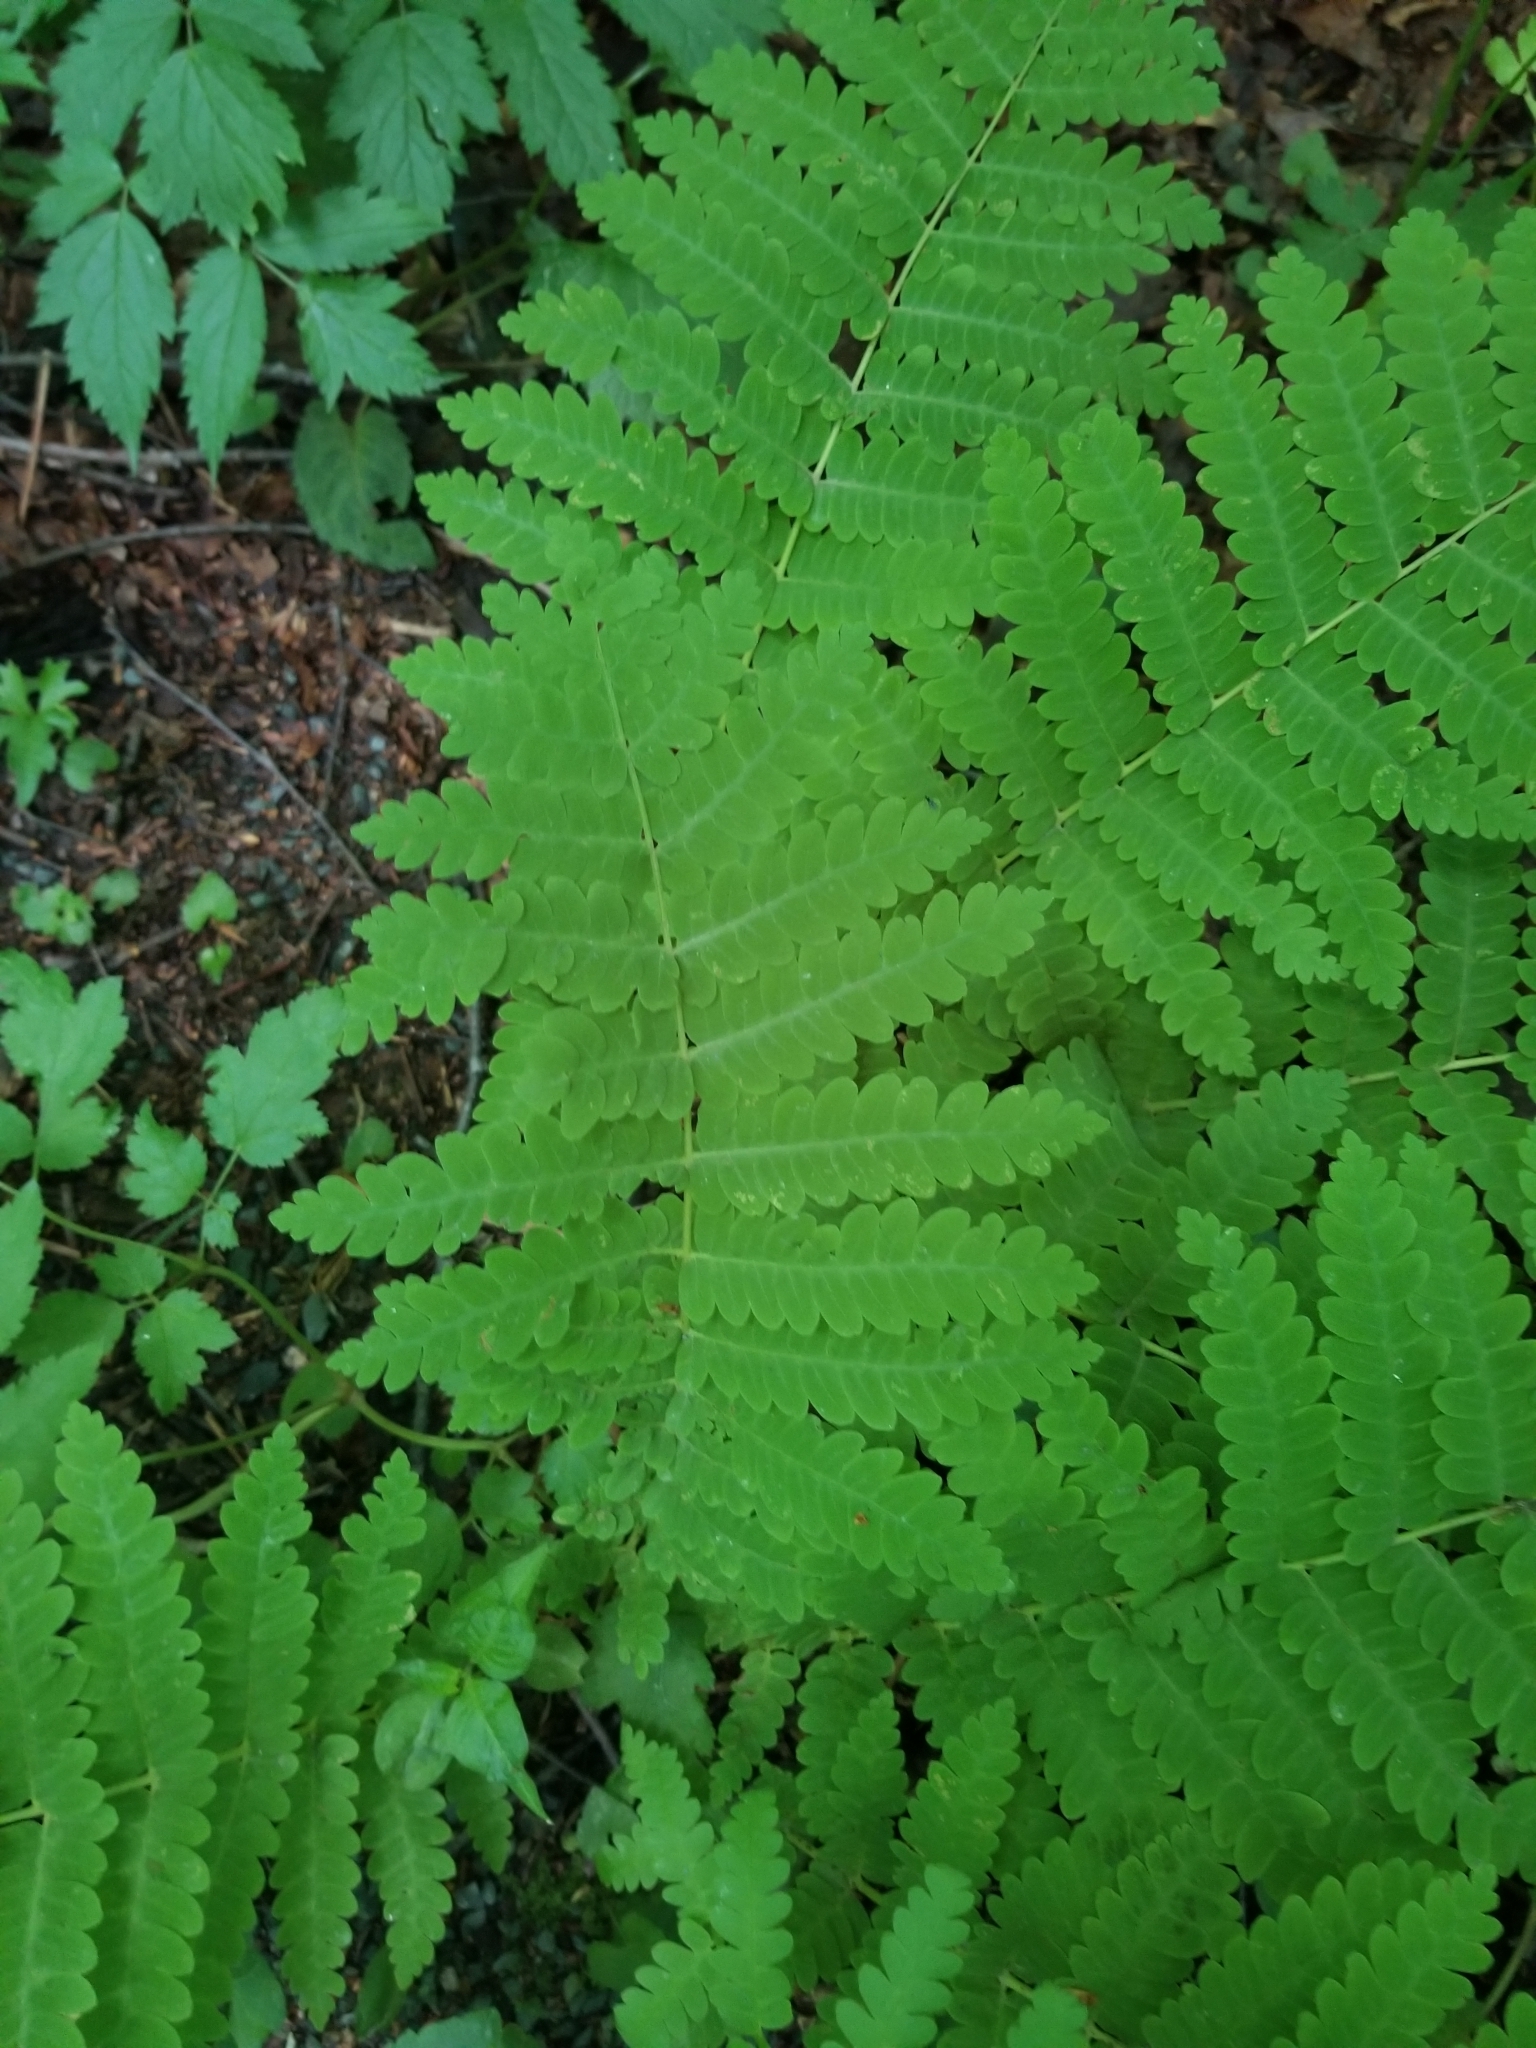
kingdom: Plantae
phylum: Tracheophyta
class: Polypodiopsida
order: Osmundales
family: Osmundaceae
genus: Claytosmunda
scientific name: Claytosmunda claytoniana
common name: Clayton's fern
